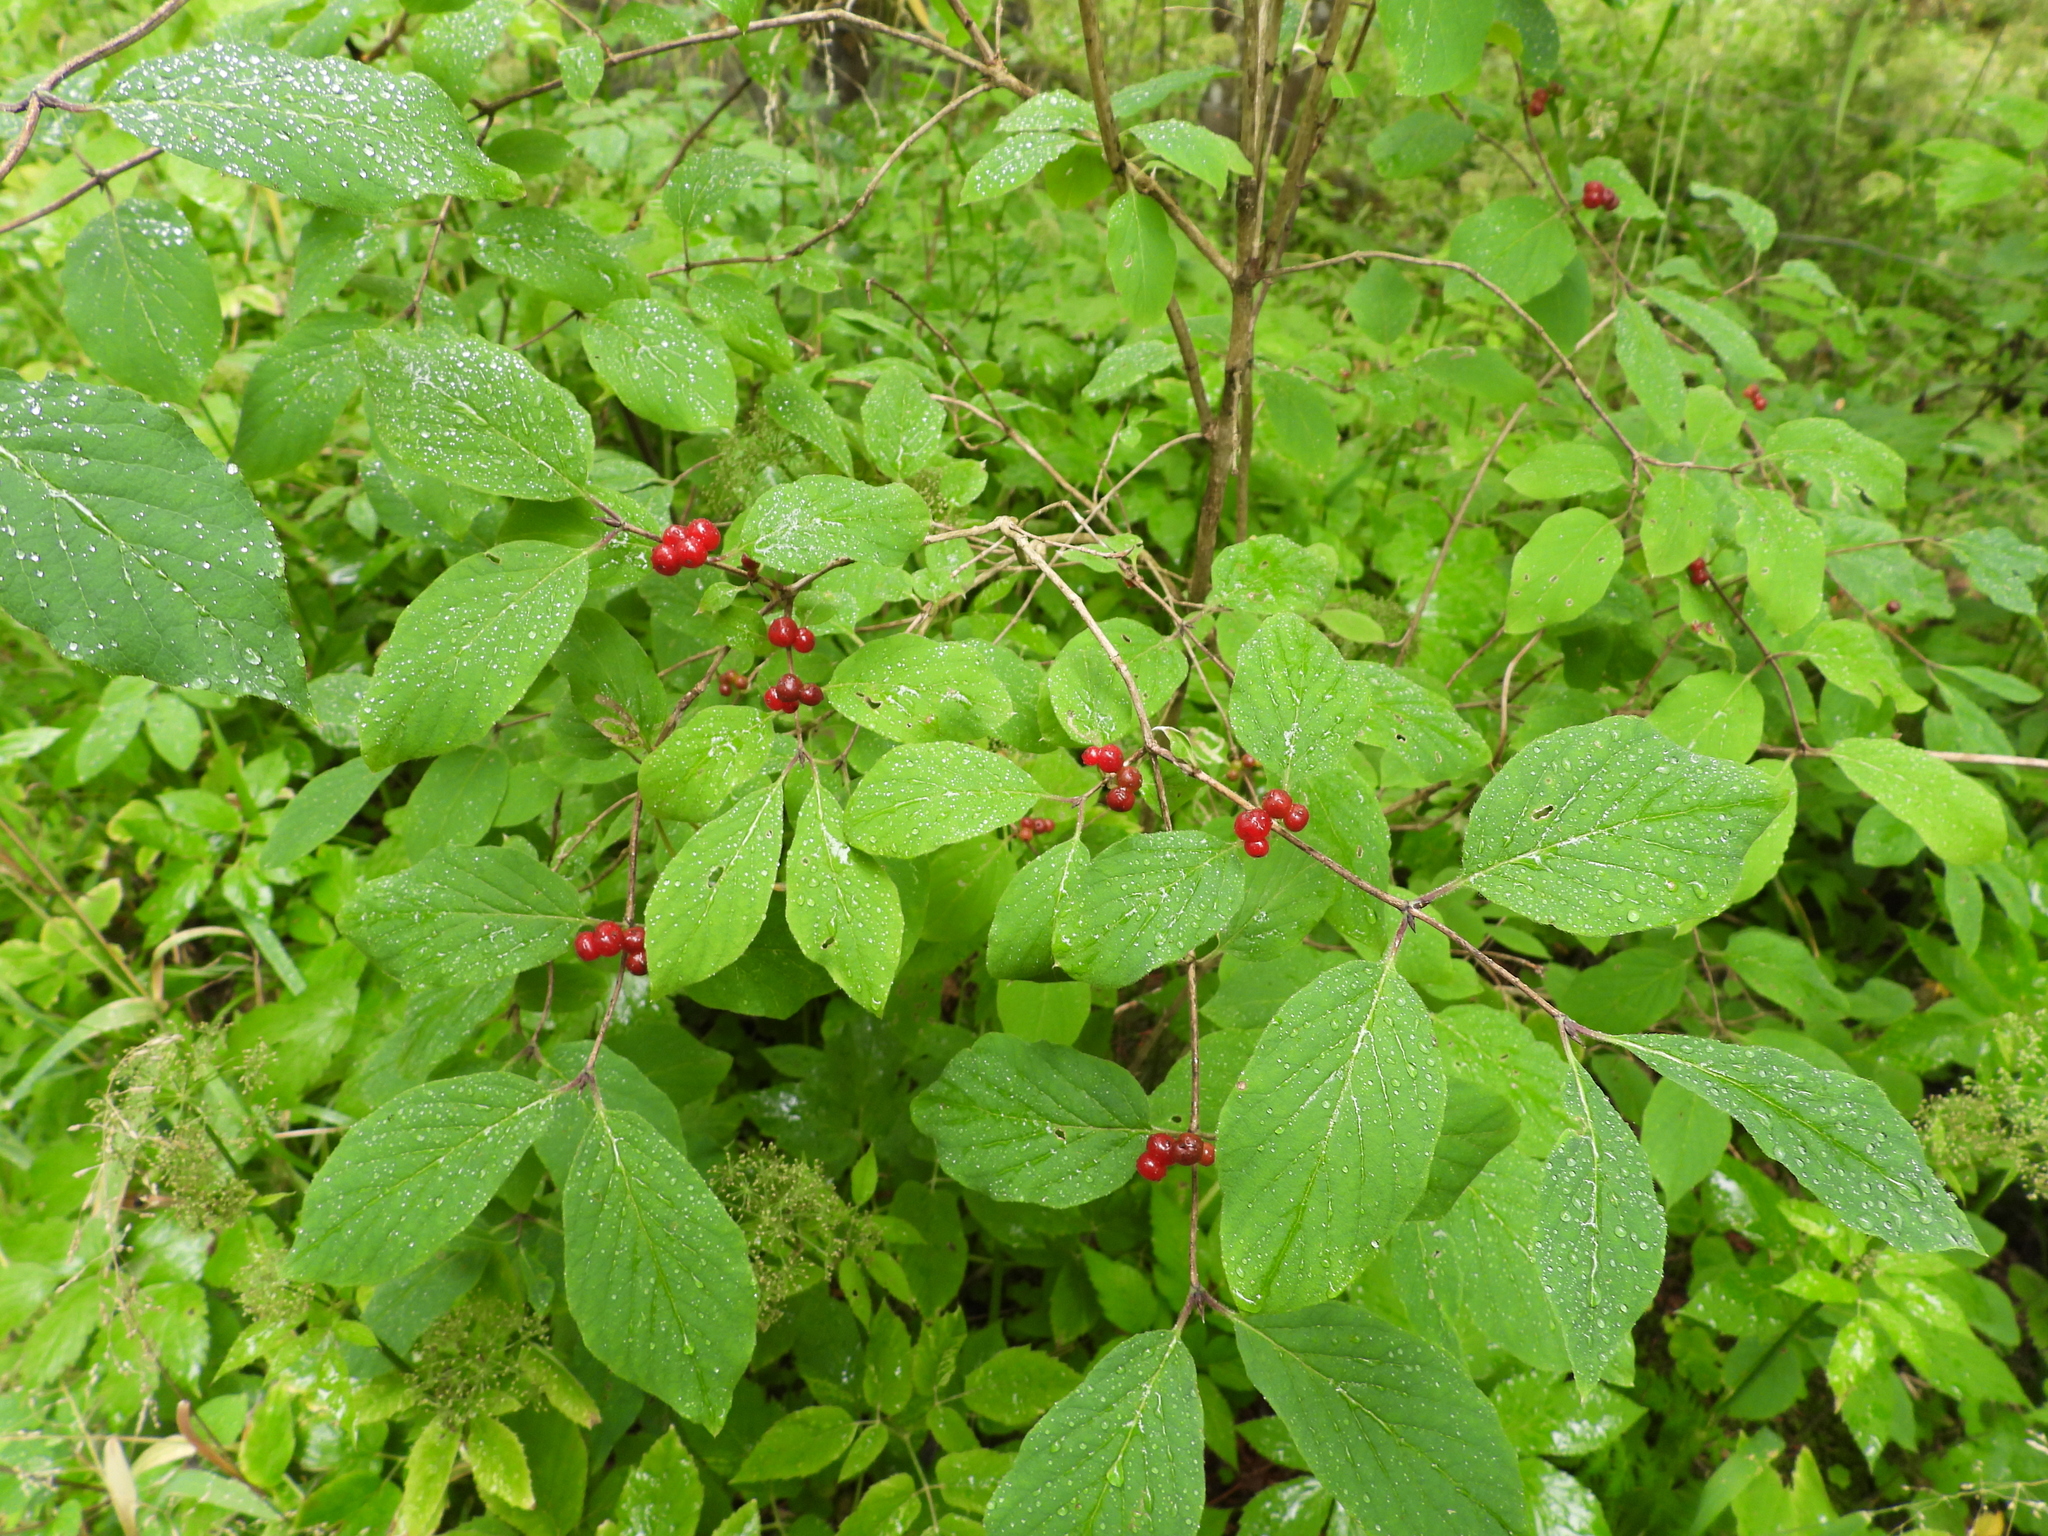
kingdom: Plantae
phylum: Tracheophyta
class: Magnoliopsida
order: Dipsacales
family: Caprifoliaceae
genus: Lonicera
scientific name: Lonicera xylosteum
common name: Fly honeysuckle
